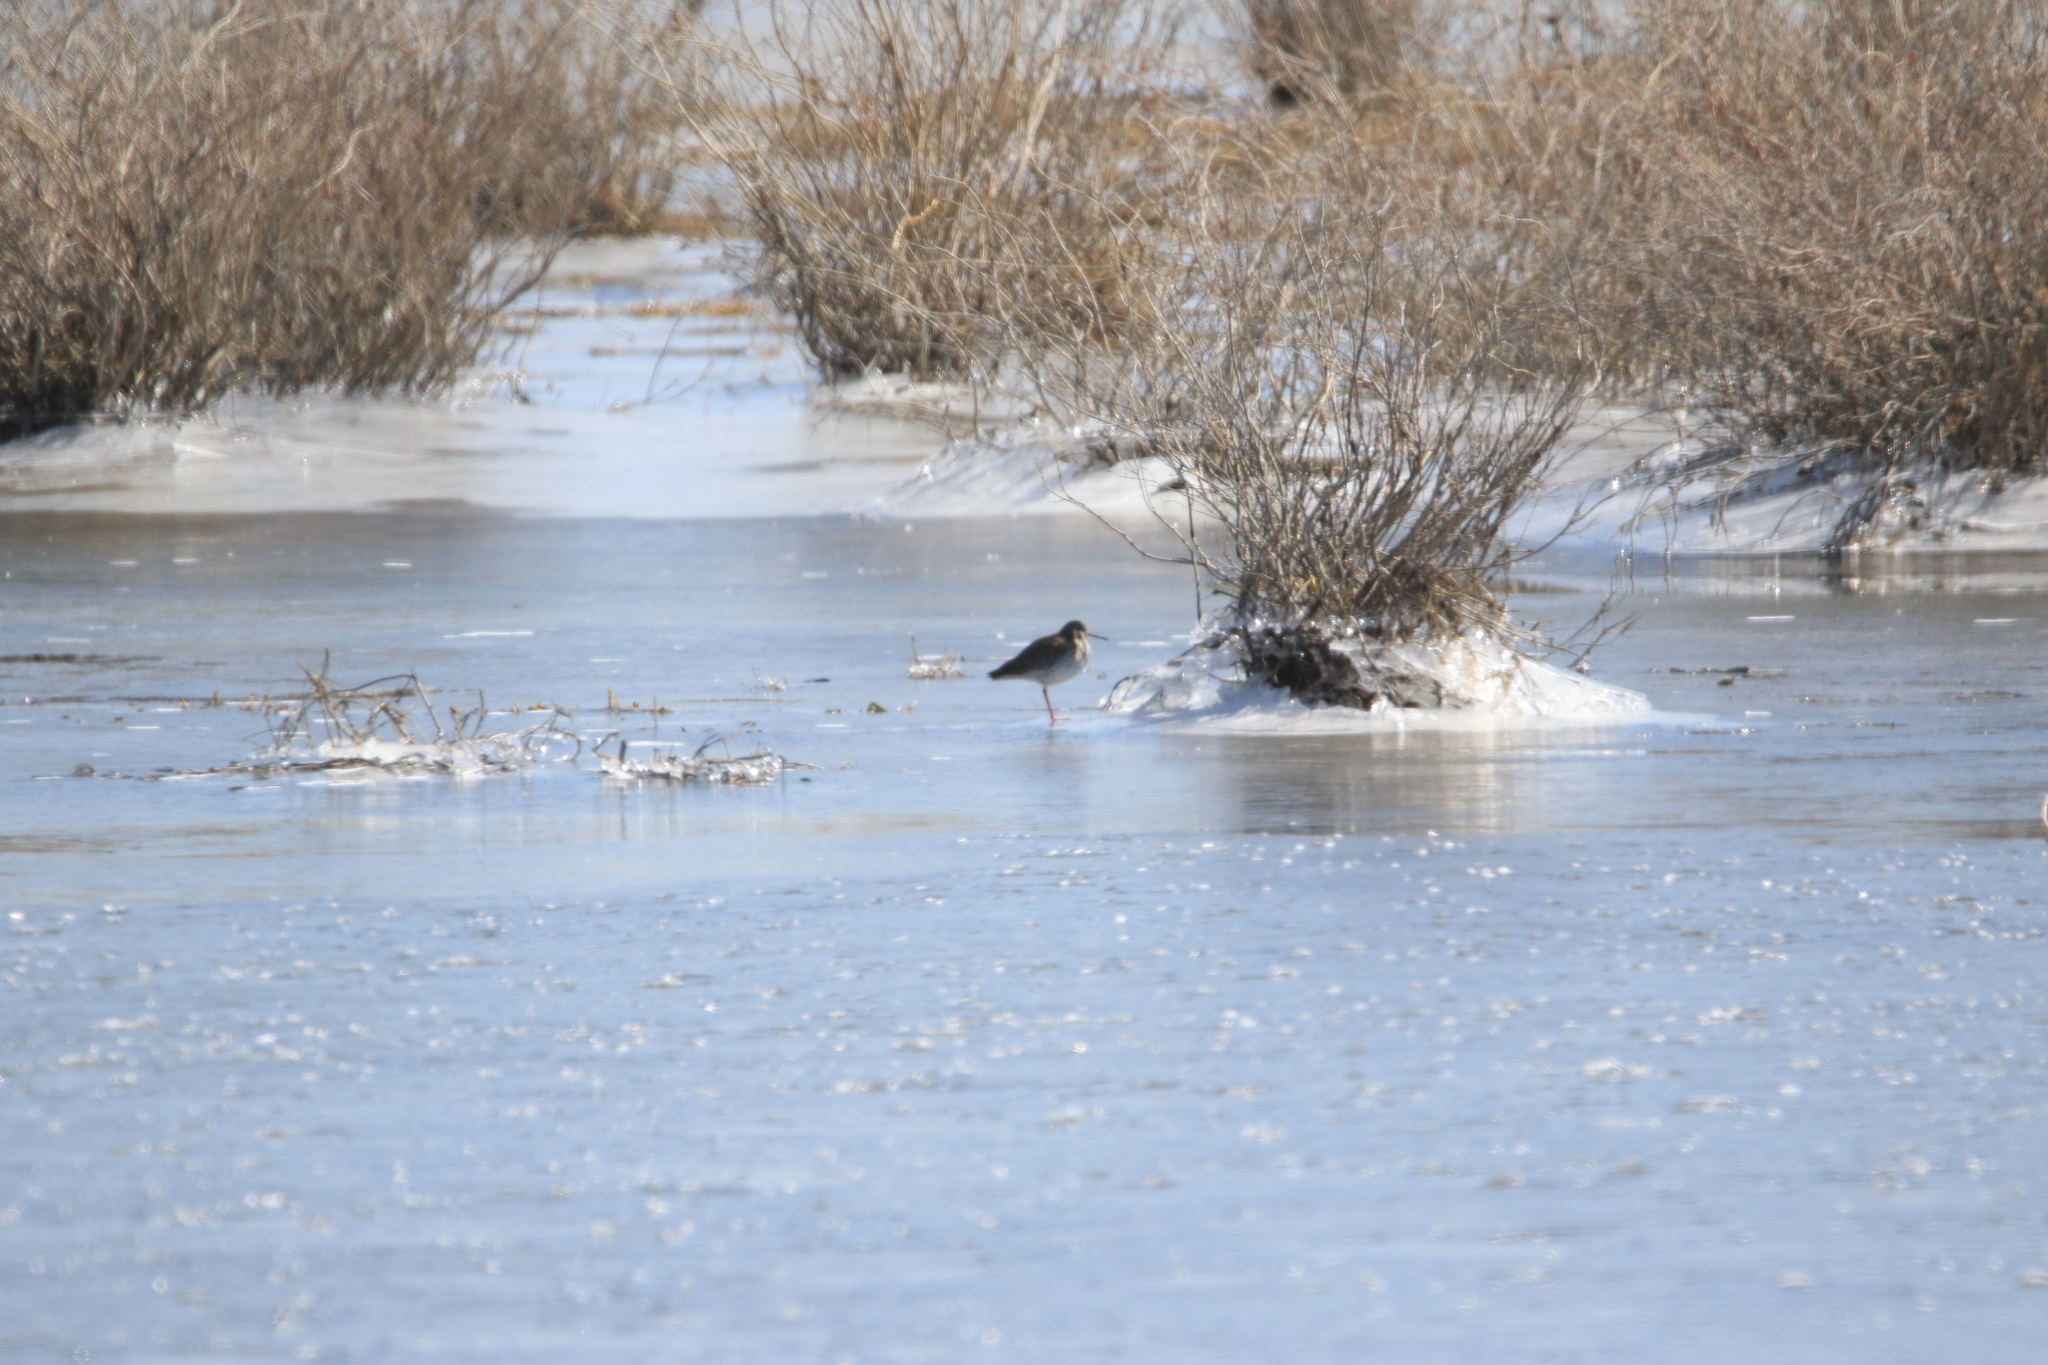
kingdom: Animalia
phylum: Chordata
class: Aves
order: Charadriiformes
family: Scolopacidae
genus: Tringa
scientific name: Tringa totanus
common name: Common redshank
